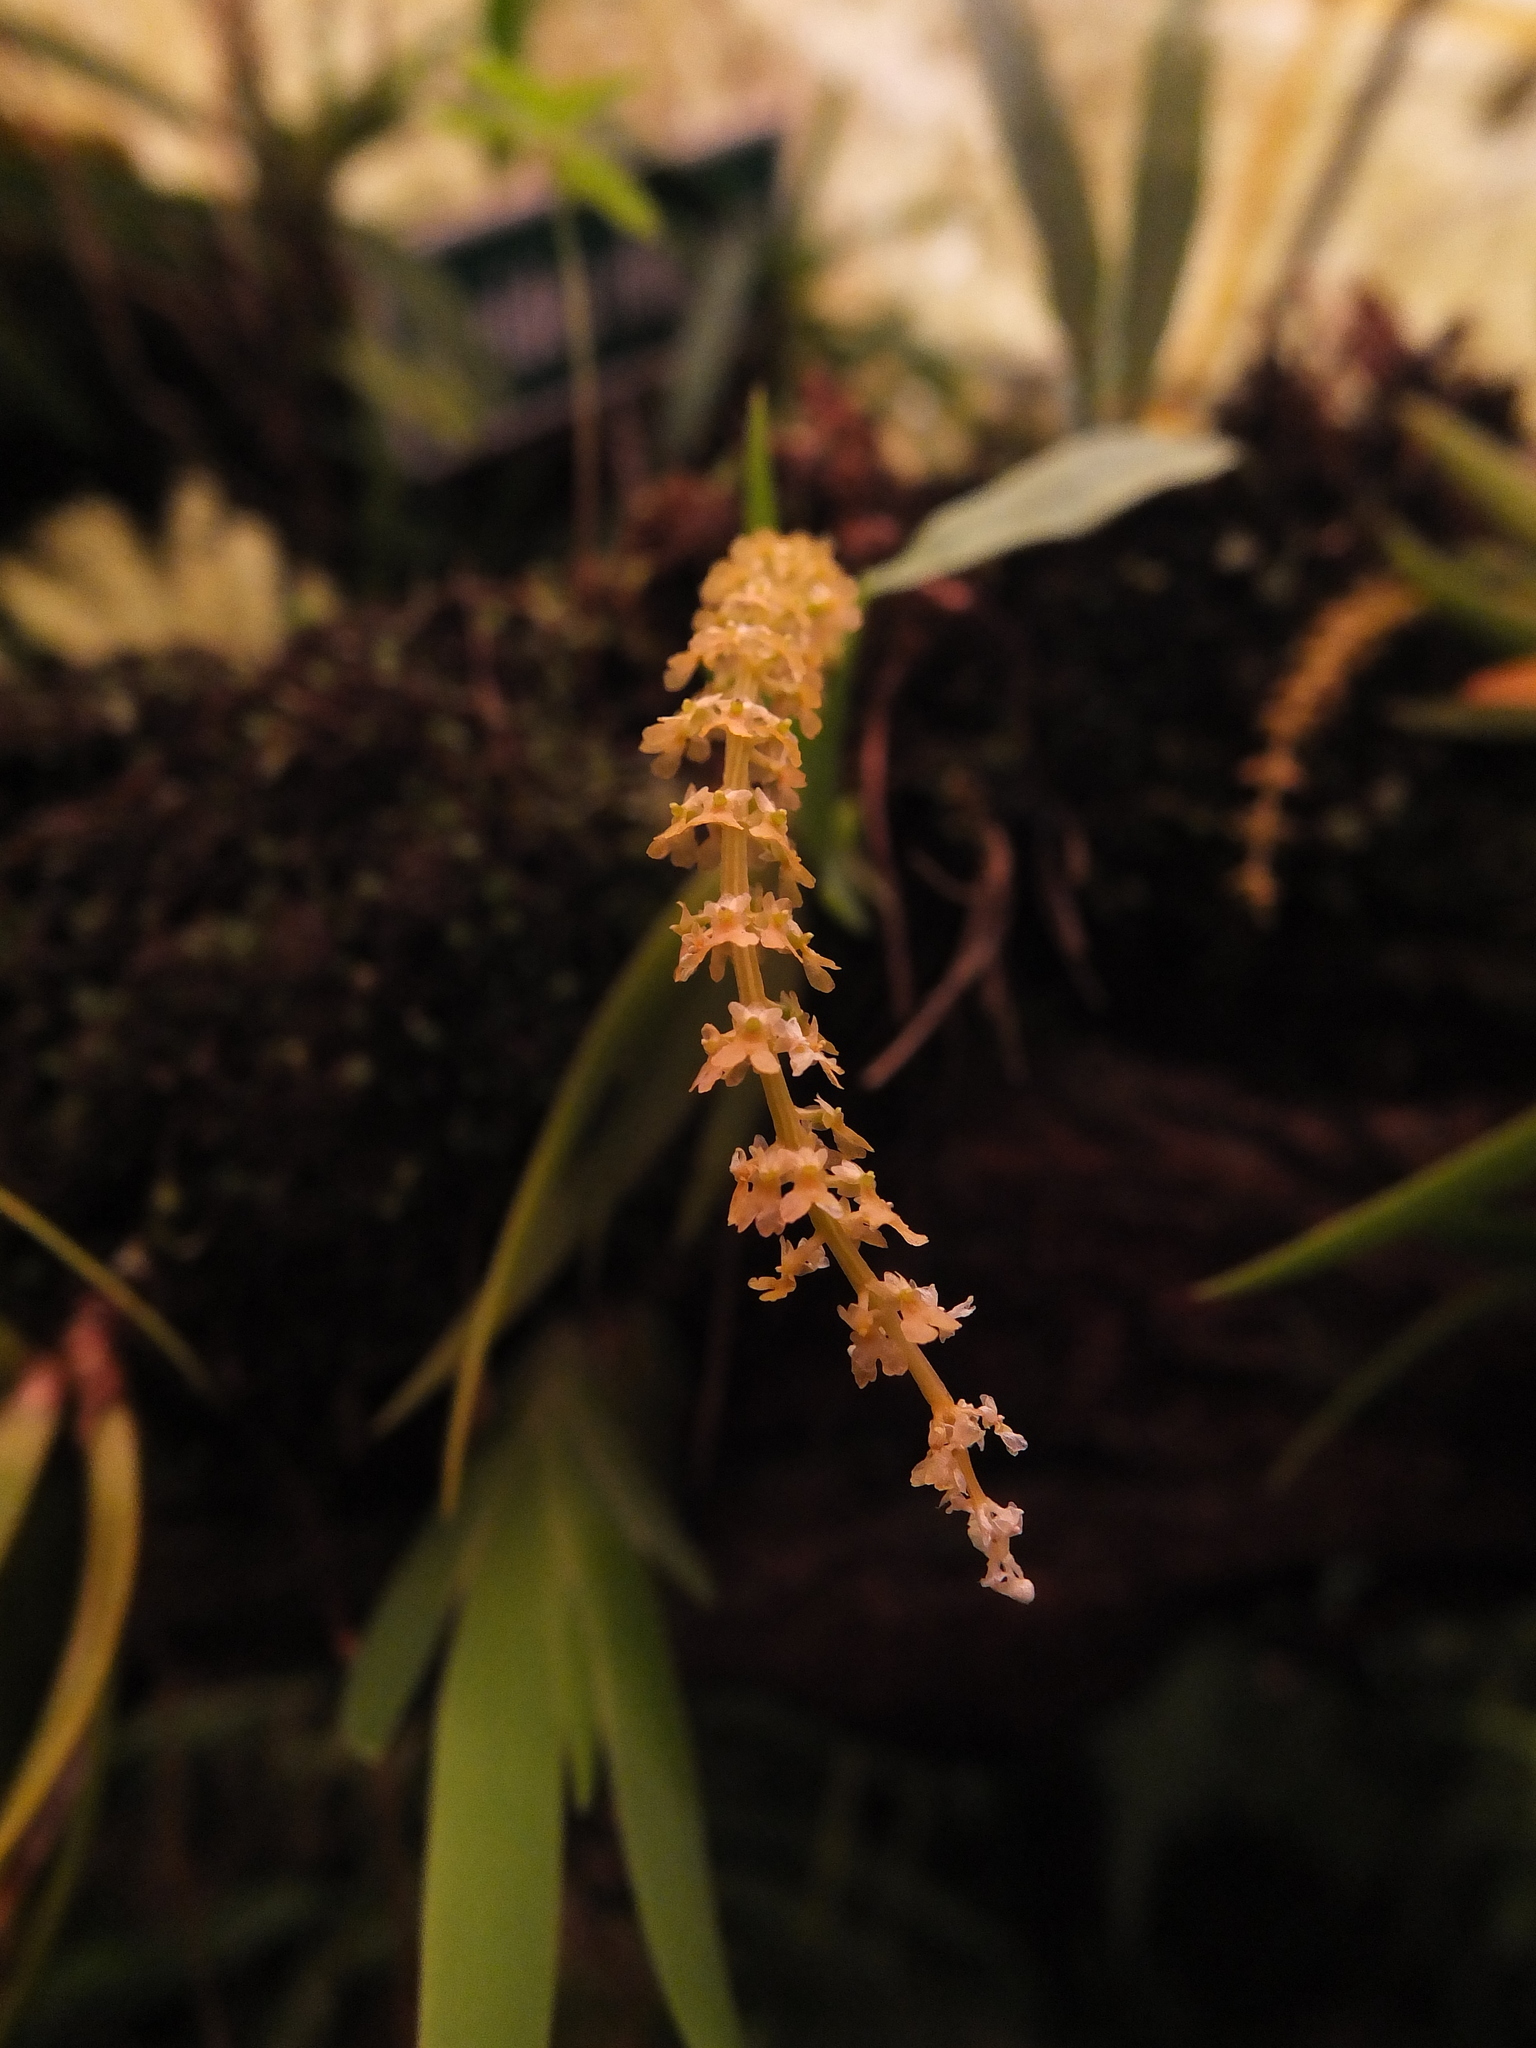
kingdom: Plantae
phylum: Tracheophyta
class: Liliopsida
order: Asparagales
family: Orchidaceae
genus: Oberonia
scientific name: Oberonia verticillata
